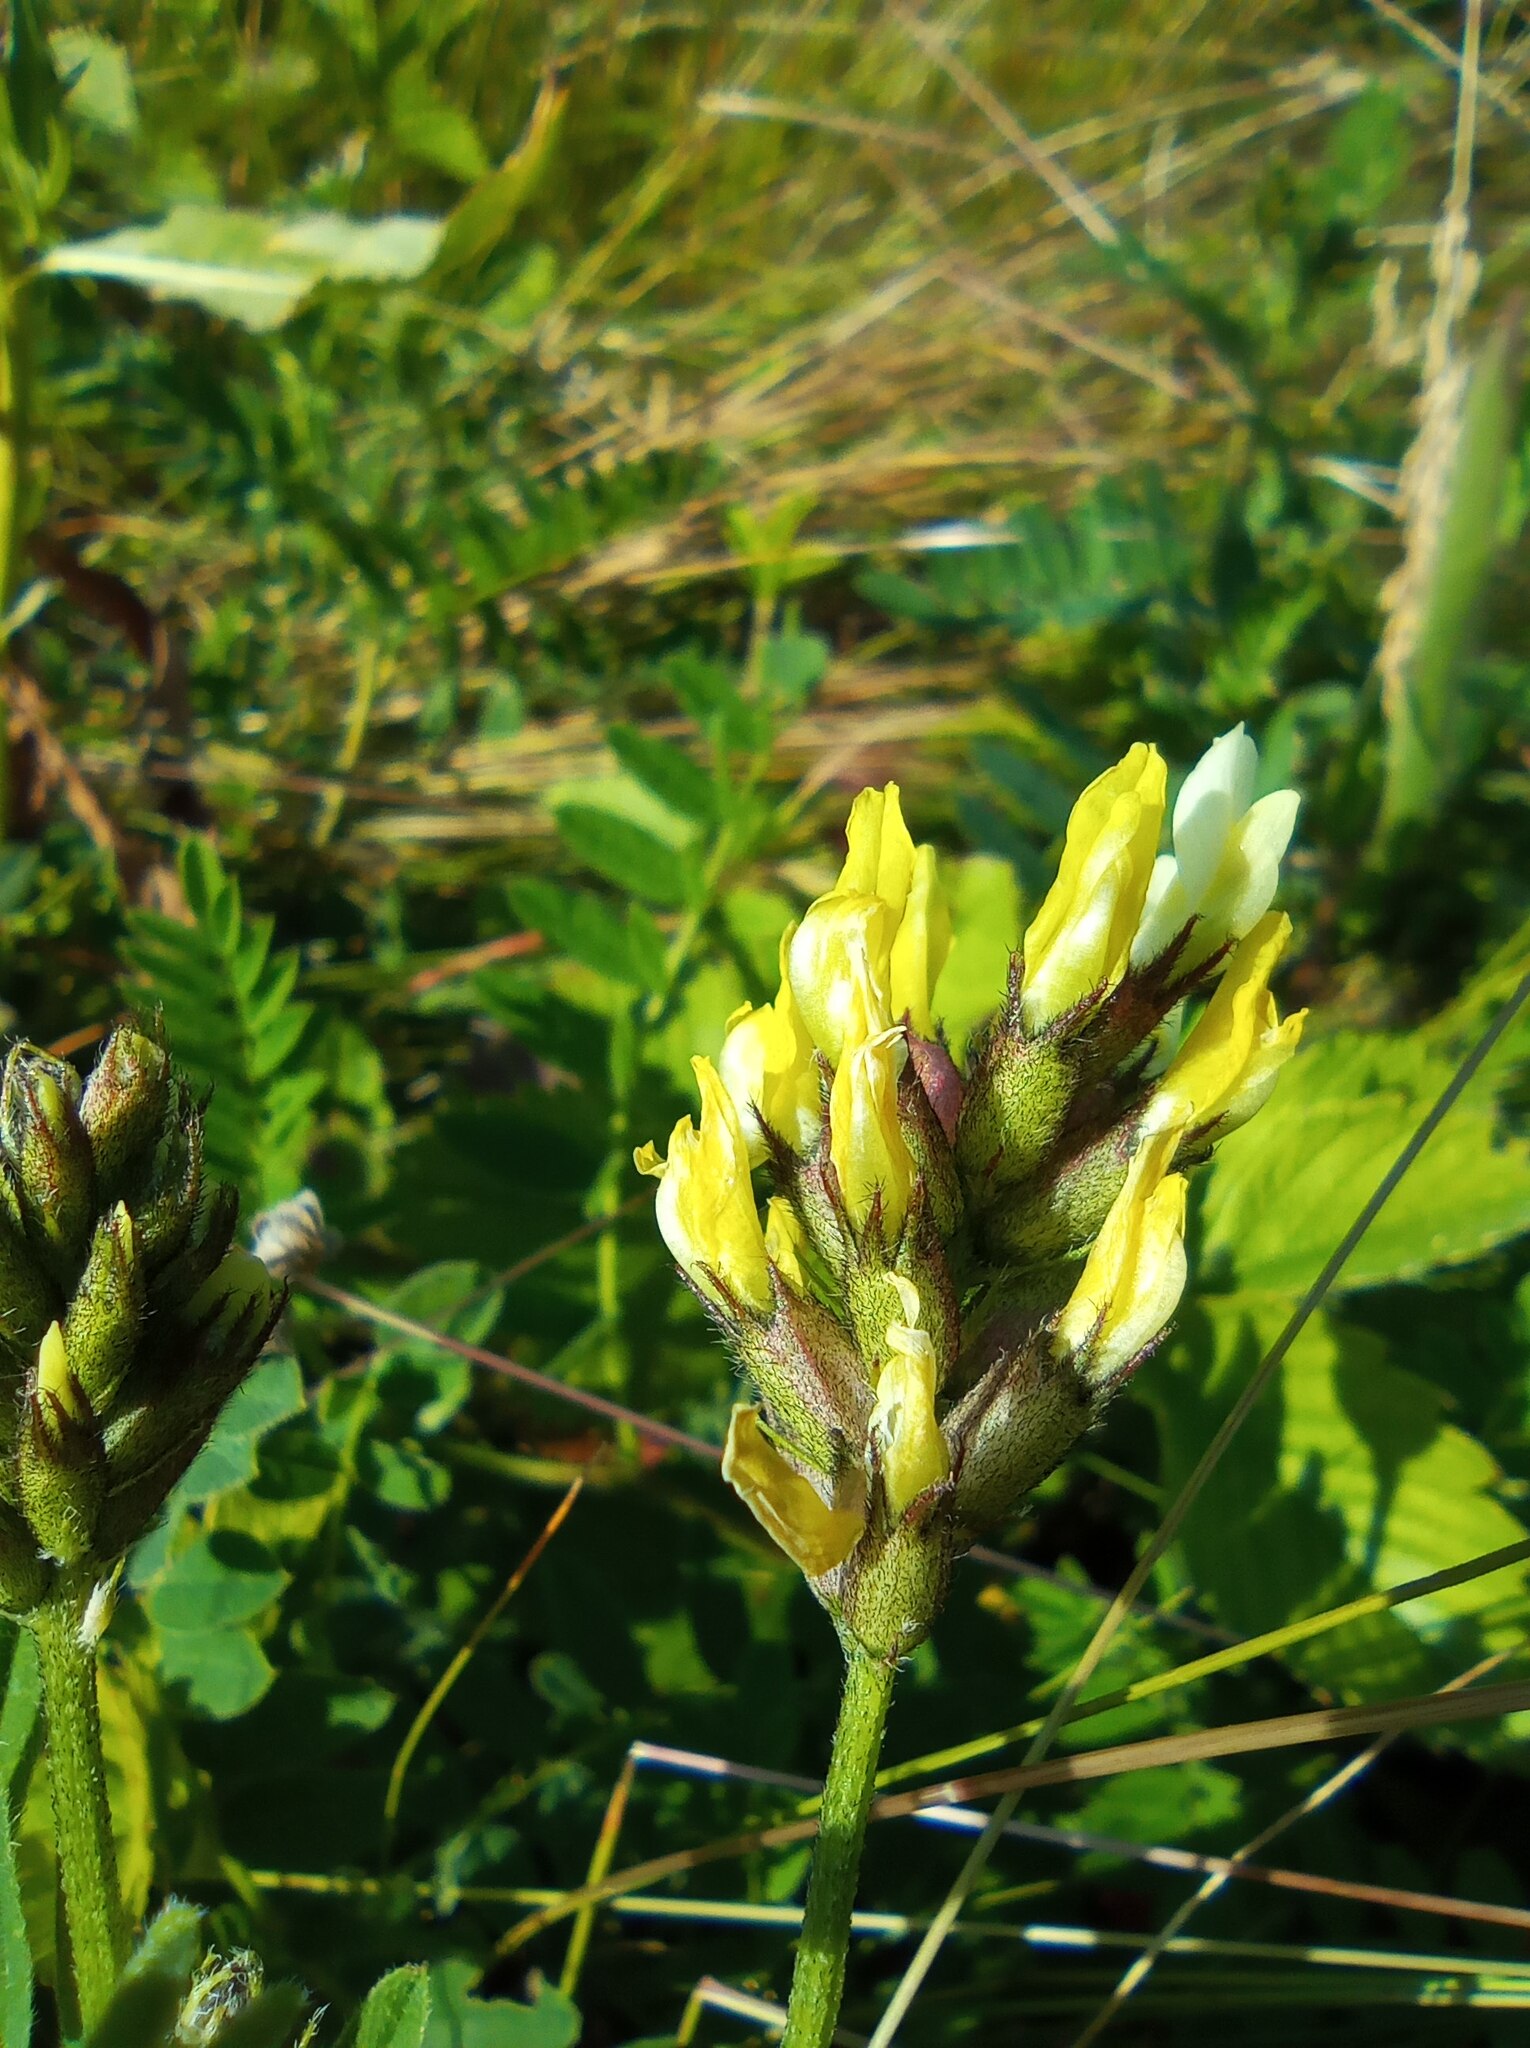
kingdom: Plantae
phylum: Tracheophyta
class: Magnoliopsida
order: Fabales
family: Fabaceae
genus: Astragalus
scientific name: Astragalus cicer
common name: Chick-pea milk-vetch
